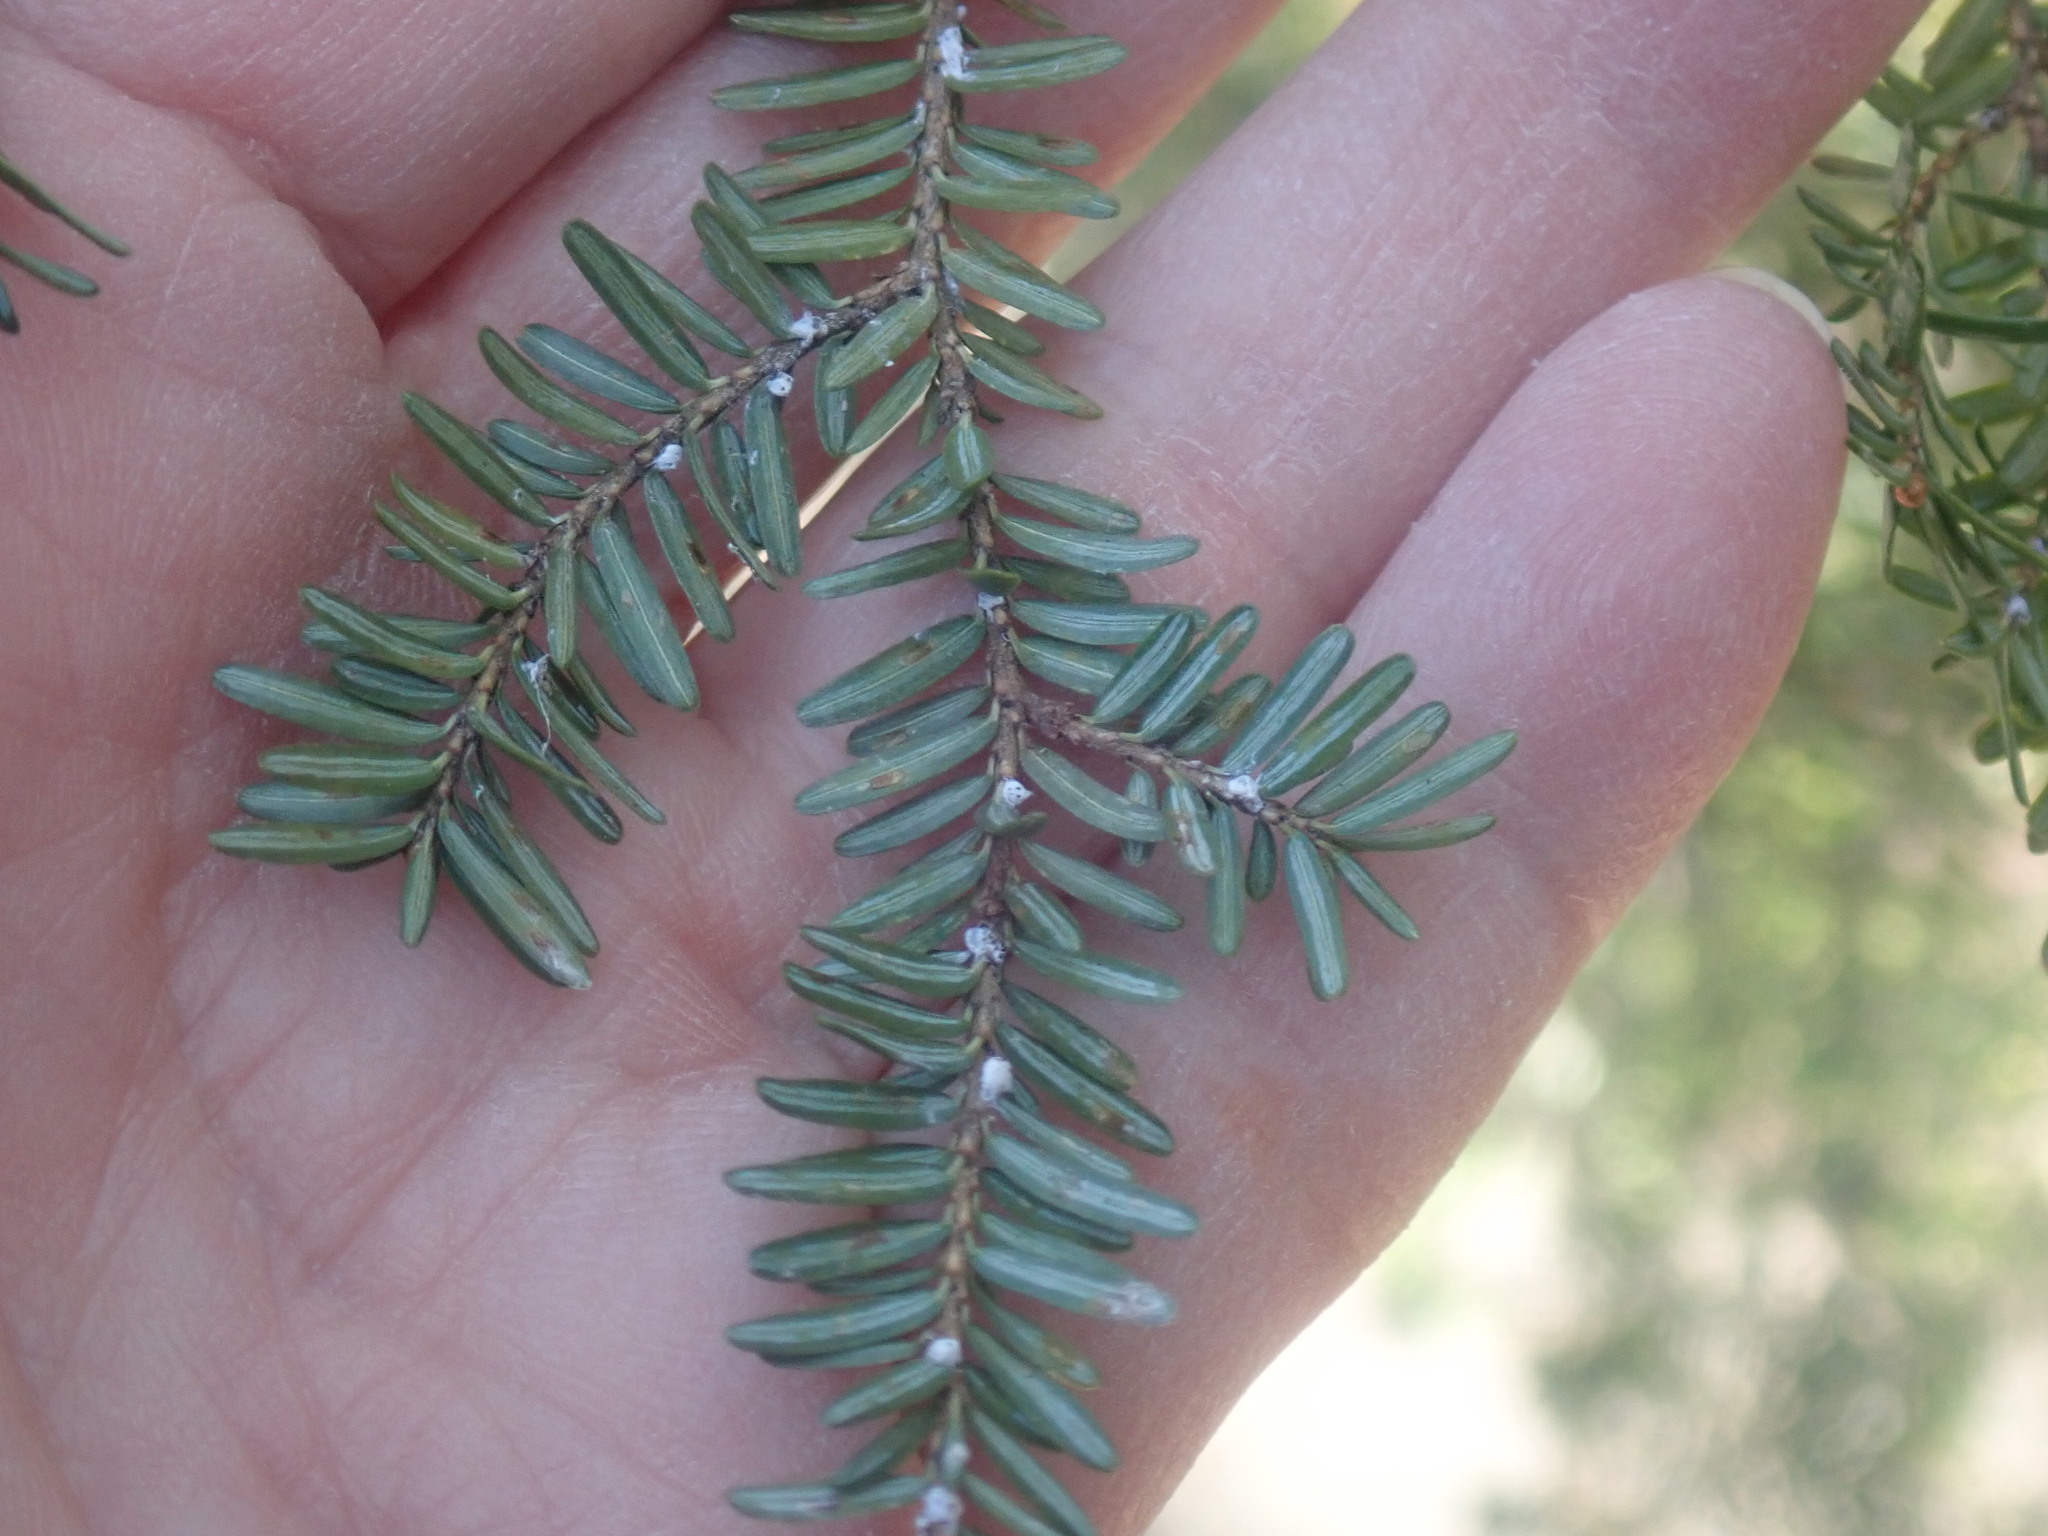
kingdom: Animalia
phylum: Arthropoda
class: Insecta
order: Hemiptera
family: Adelgidae
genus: Adelges
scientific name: Adelges tsugae
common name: Hemlock woolly adelgid
